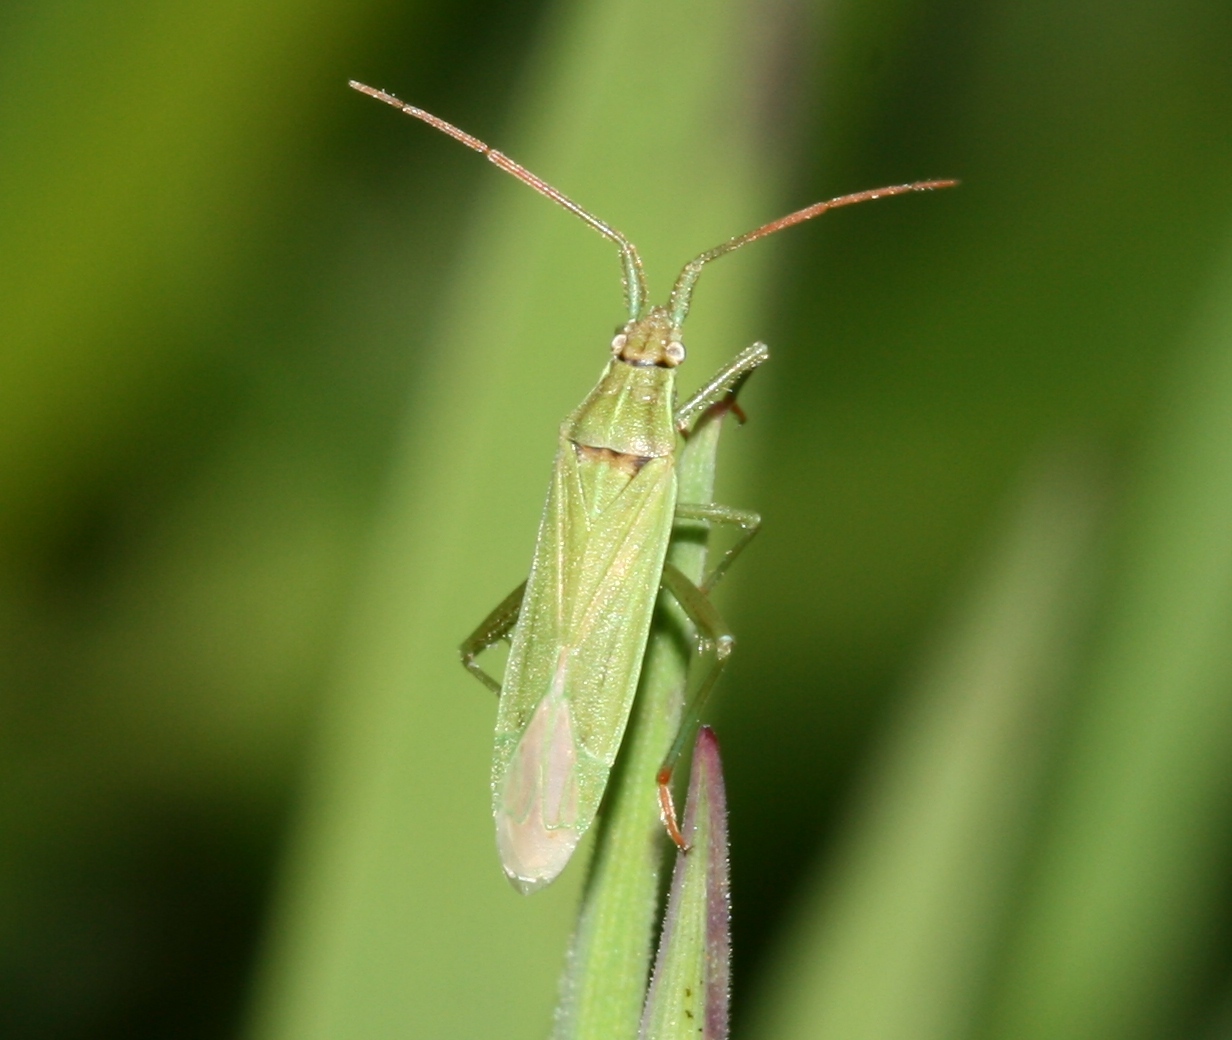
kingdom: Animalia
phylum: Arthropoda
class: Insecta
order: Hemiptera
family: Miridae
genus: Stenodema
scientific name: Stenodema calcarata
